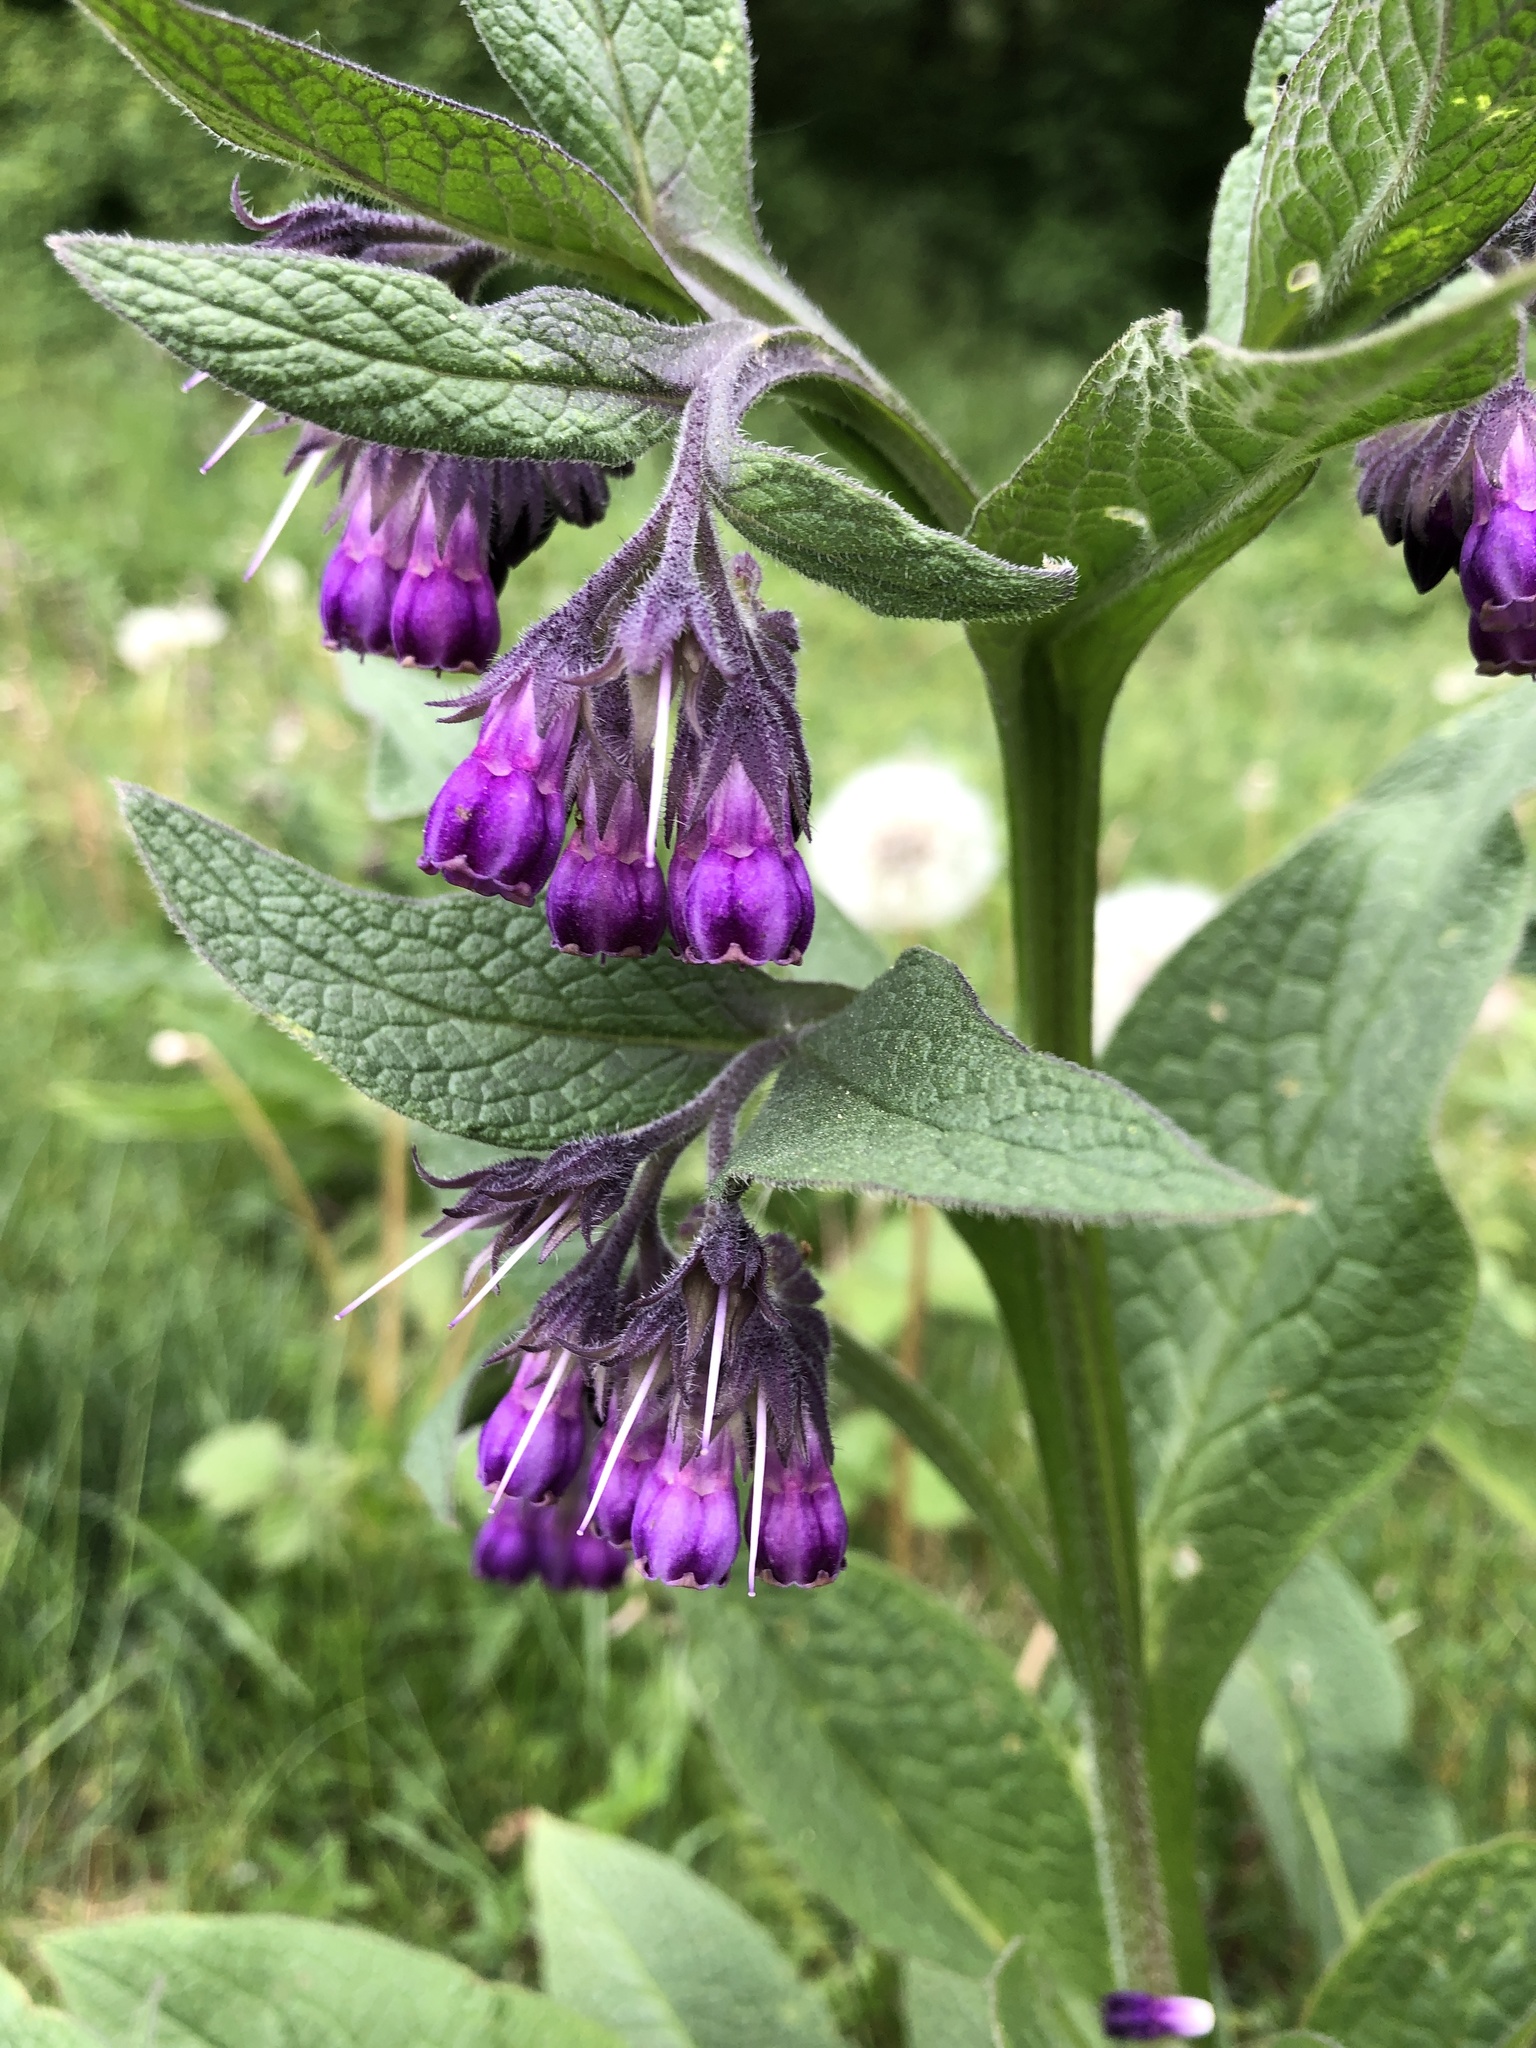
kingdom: Plantae
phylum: Tracheophyta
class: Magnoliopsida
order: Boraginales
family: Boraginaceae
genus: Symphytum
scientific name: Symphytum officinale
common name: Common comfrey
